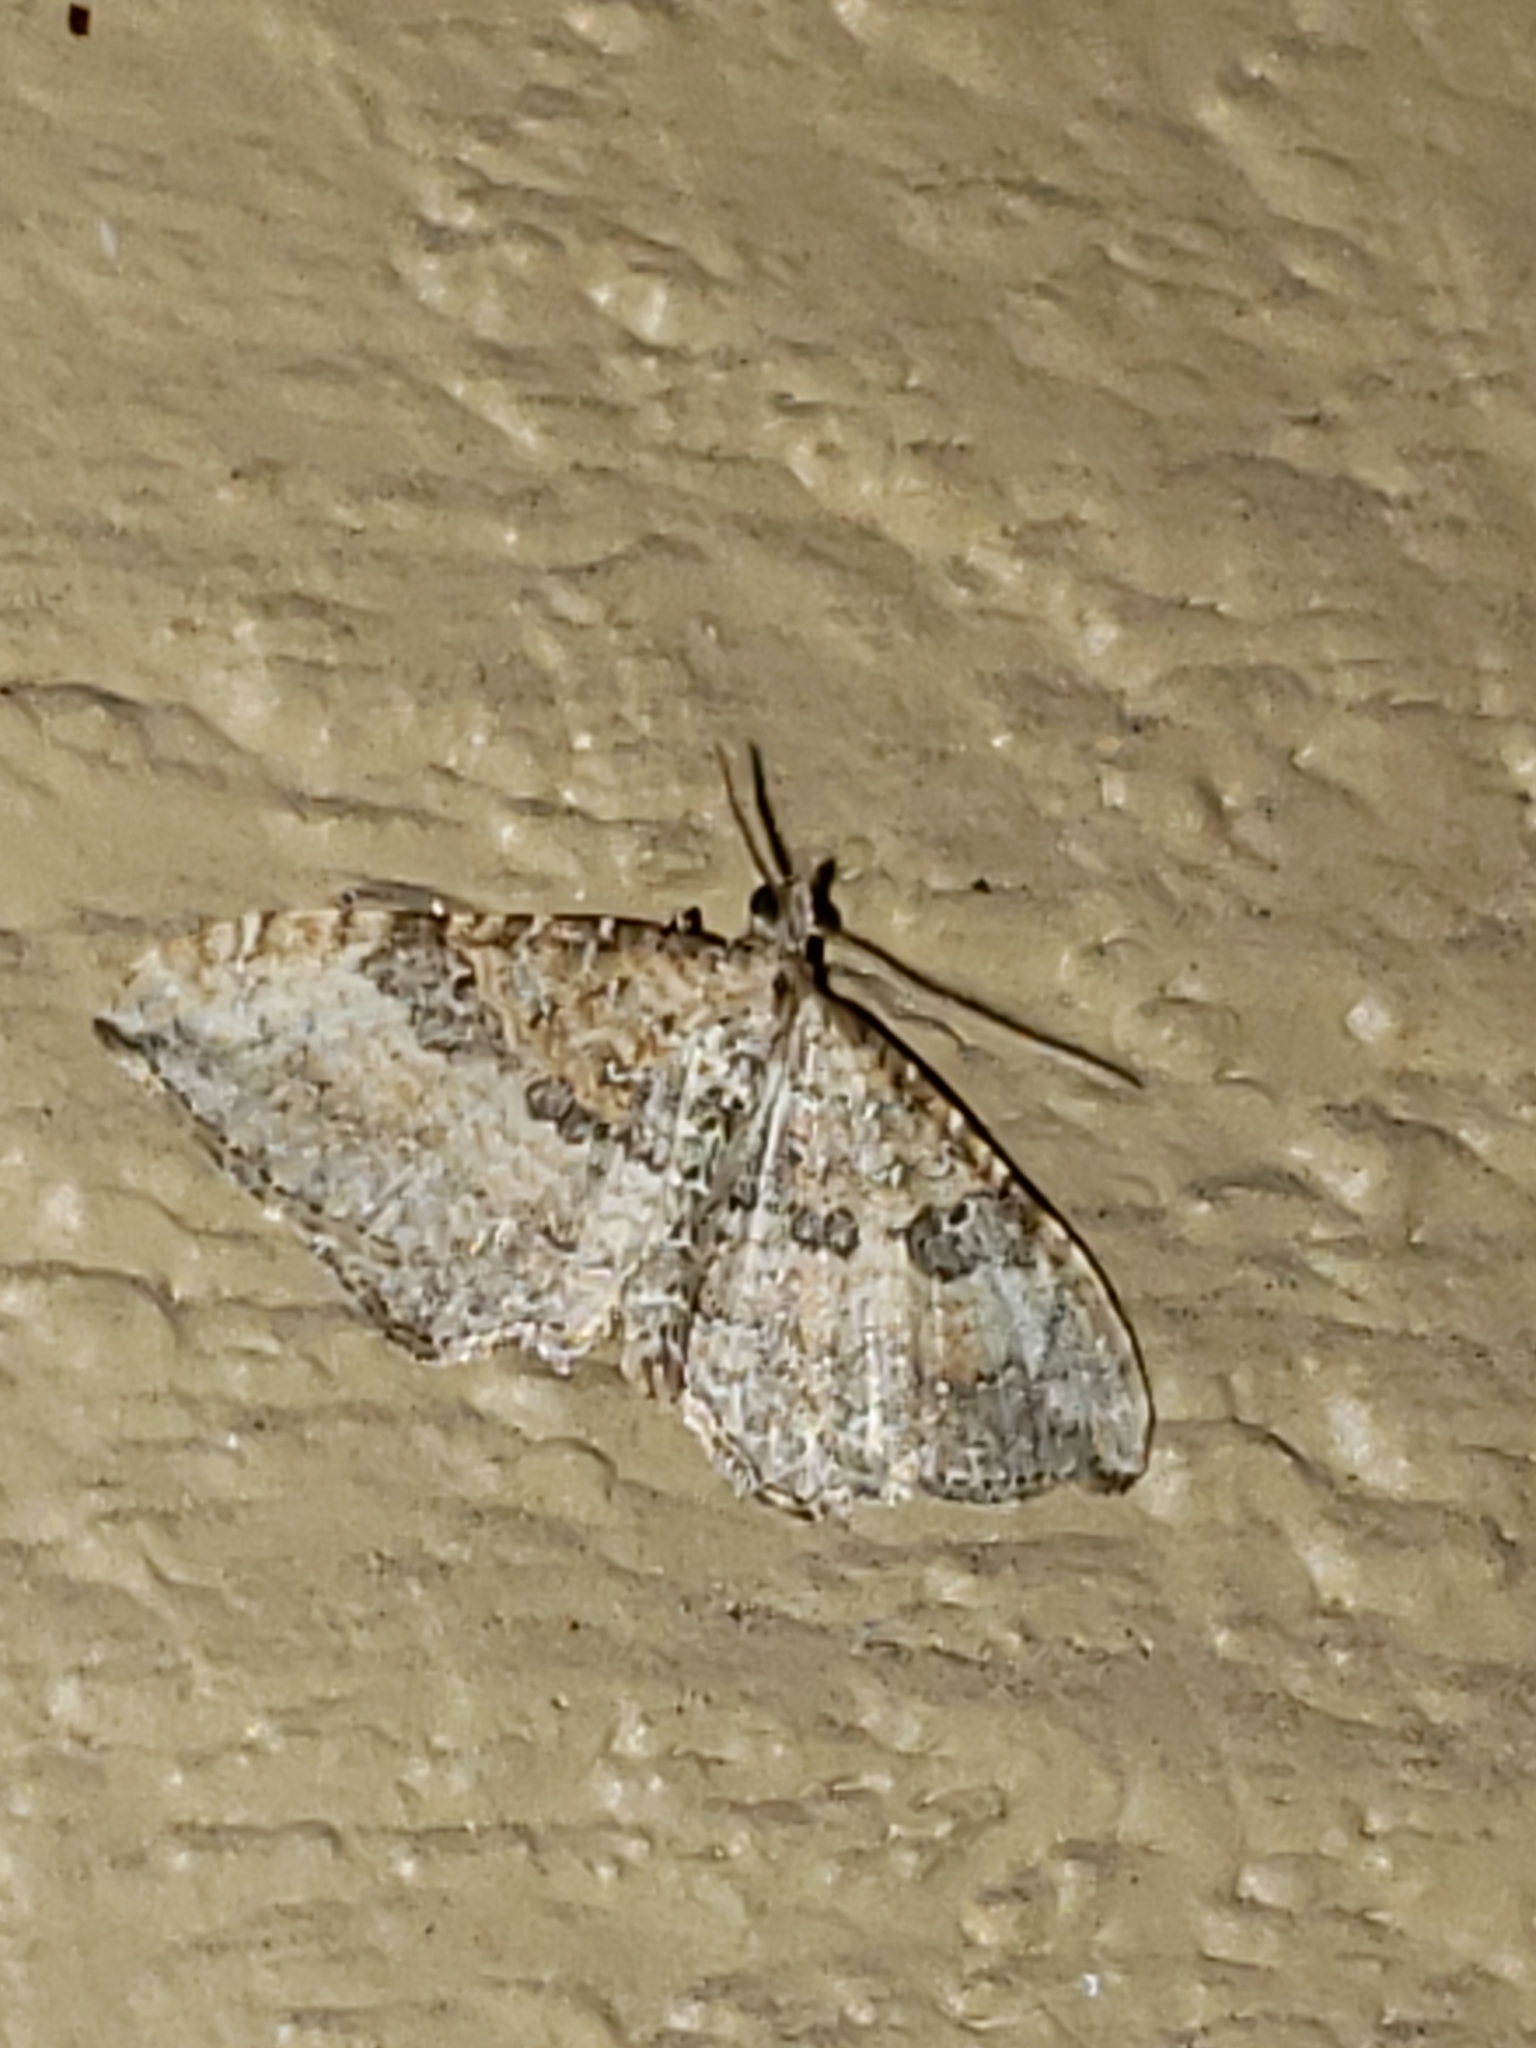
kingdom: Animalia
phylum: Arthropoda
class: Insecta
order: Lepidoptera
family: Geometridae
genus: Orthonama
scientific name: Orthonama obstipata
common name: The gem
